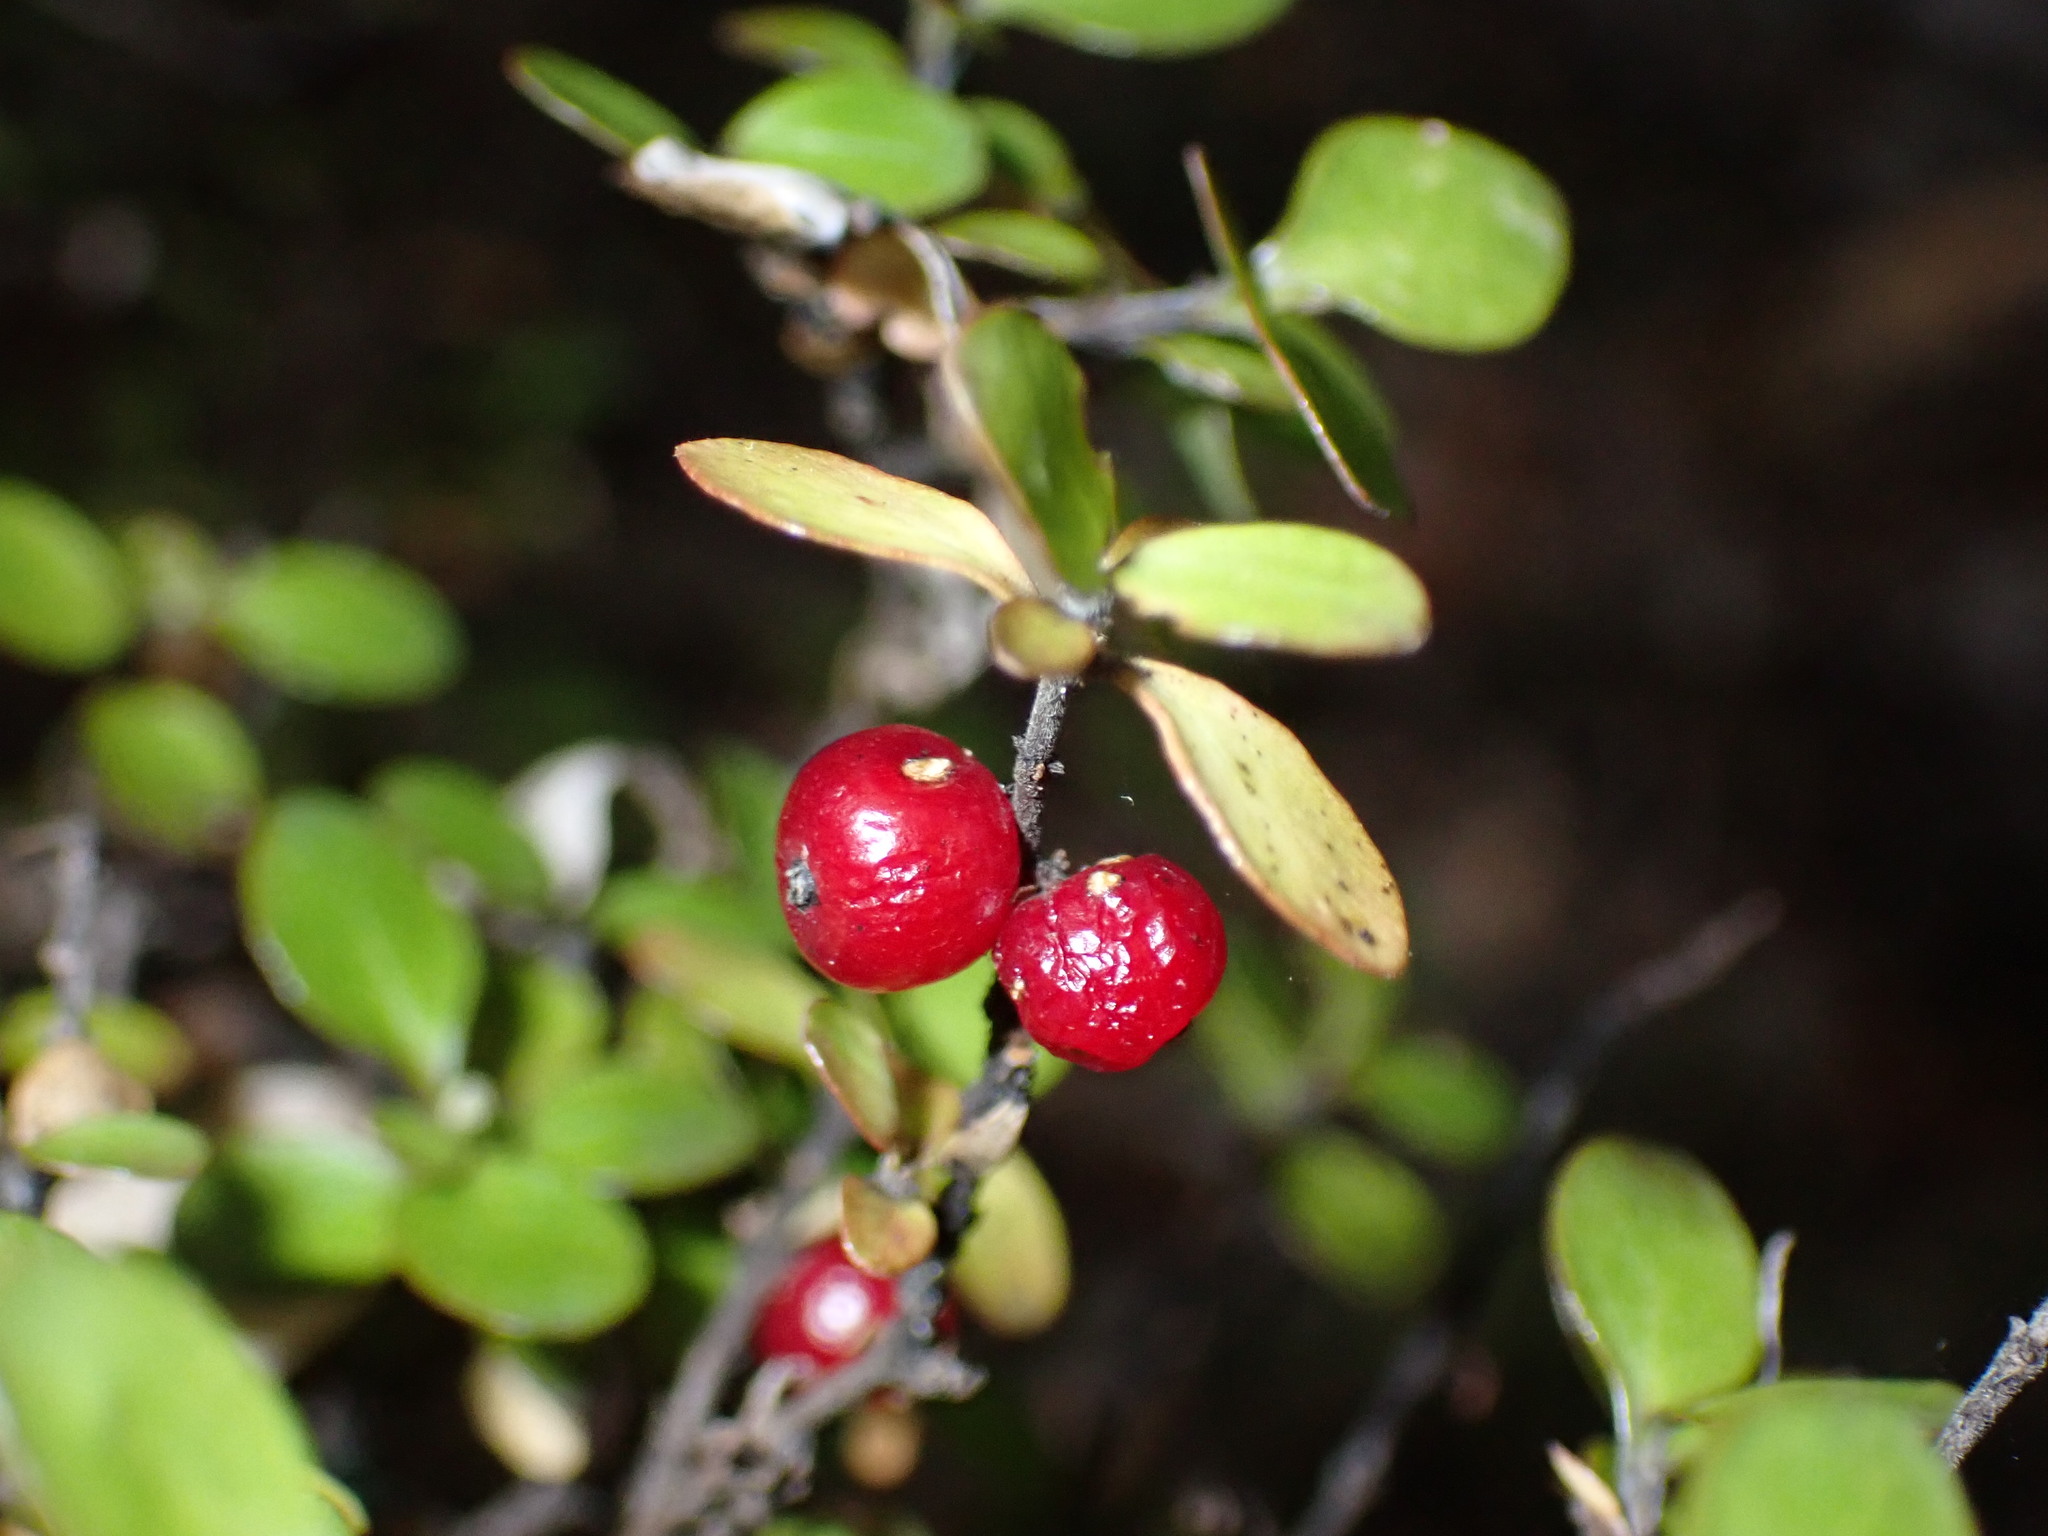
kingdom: Plantae
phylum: Tracheophyta
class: Magnoliopsida
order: Gentianales
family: Rubiaceae
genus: Coprosma
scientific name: Coprosma rhamnoides
